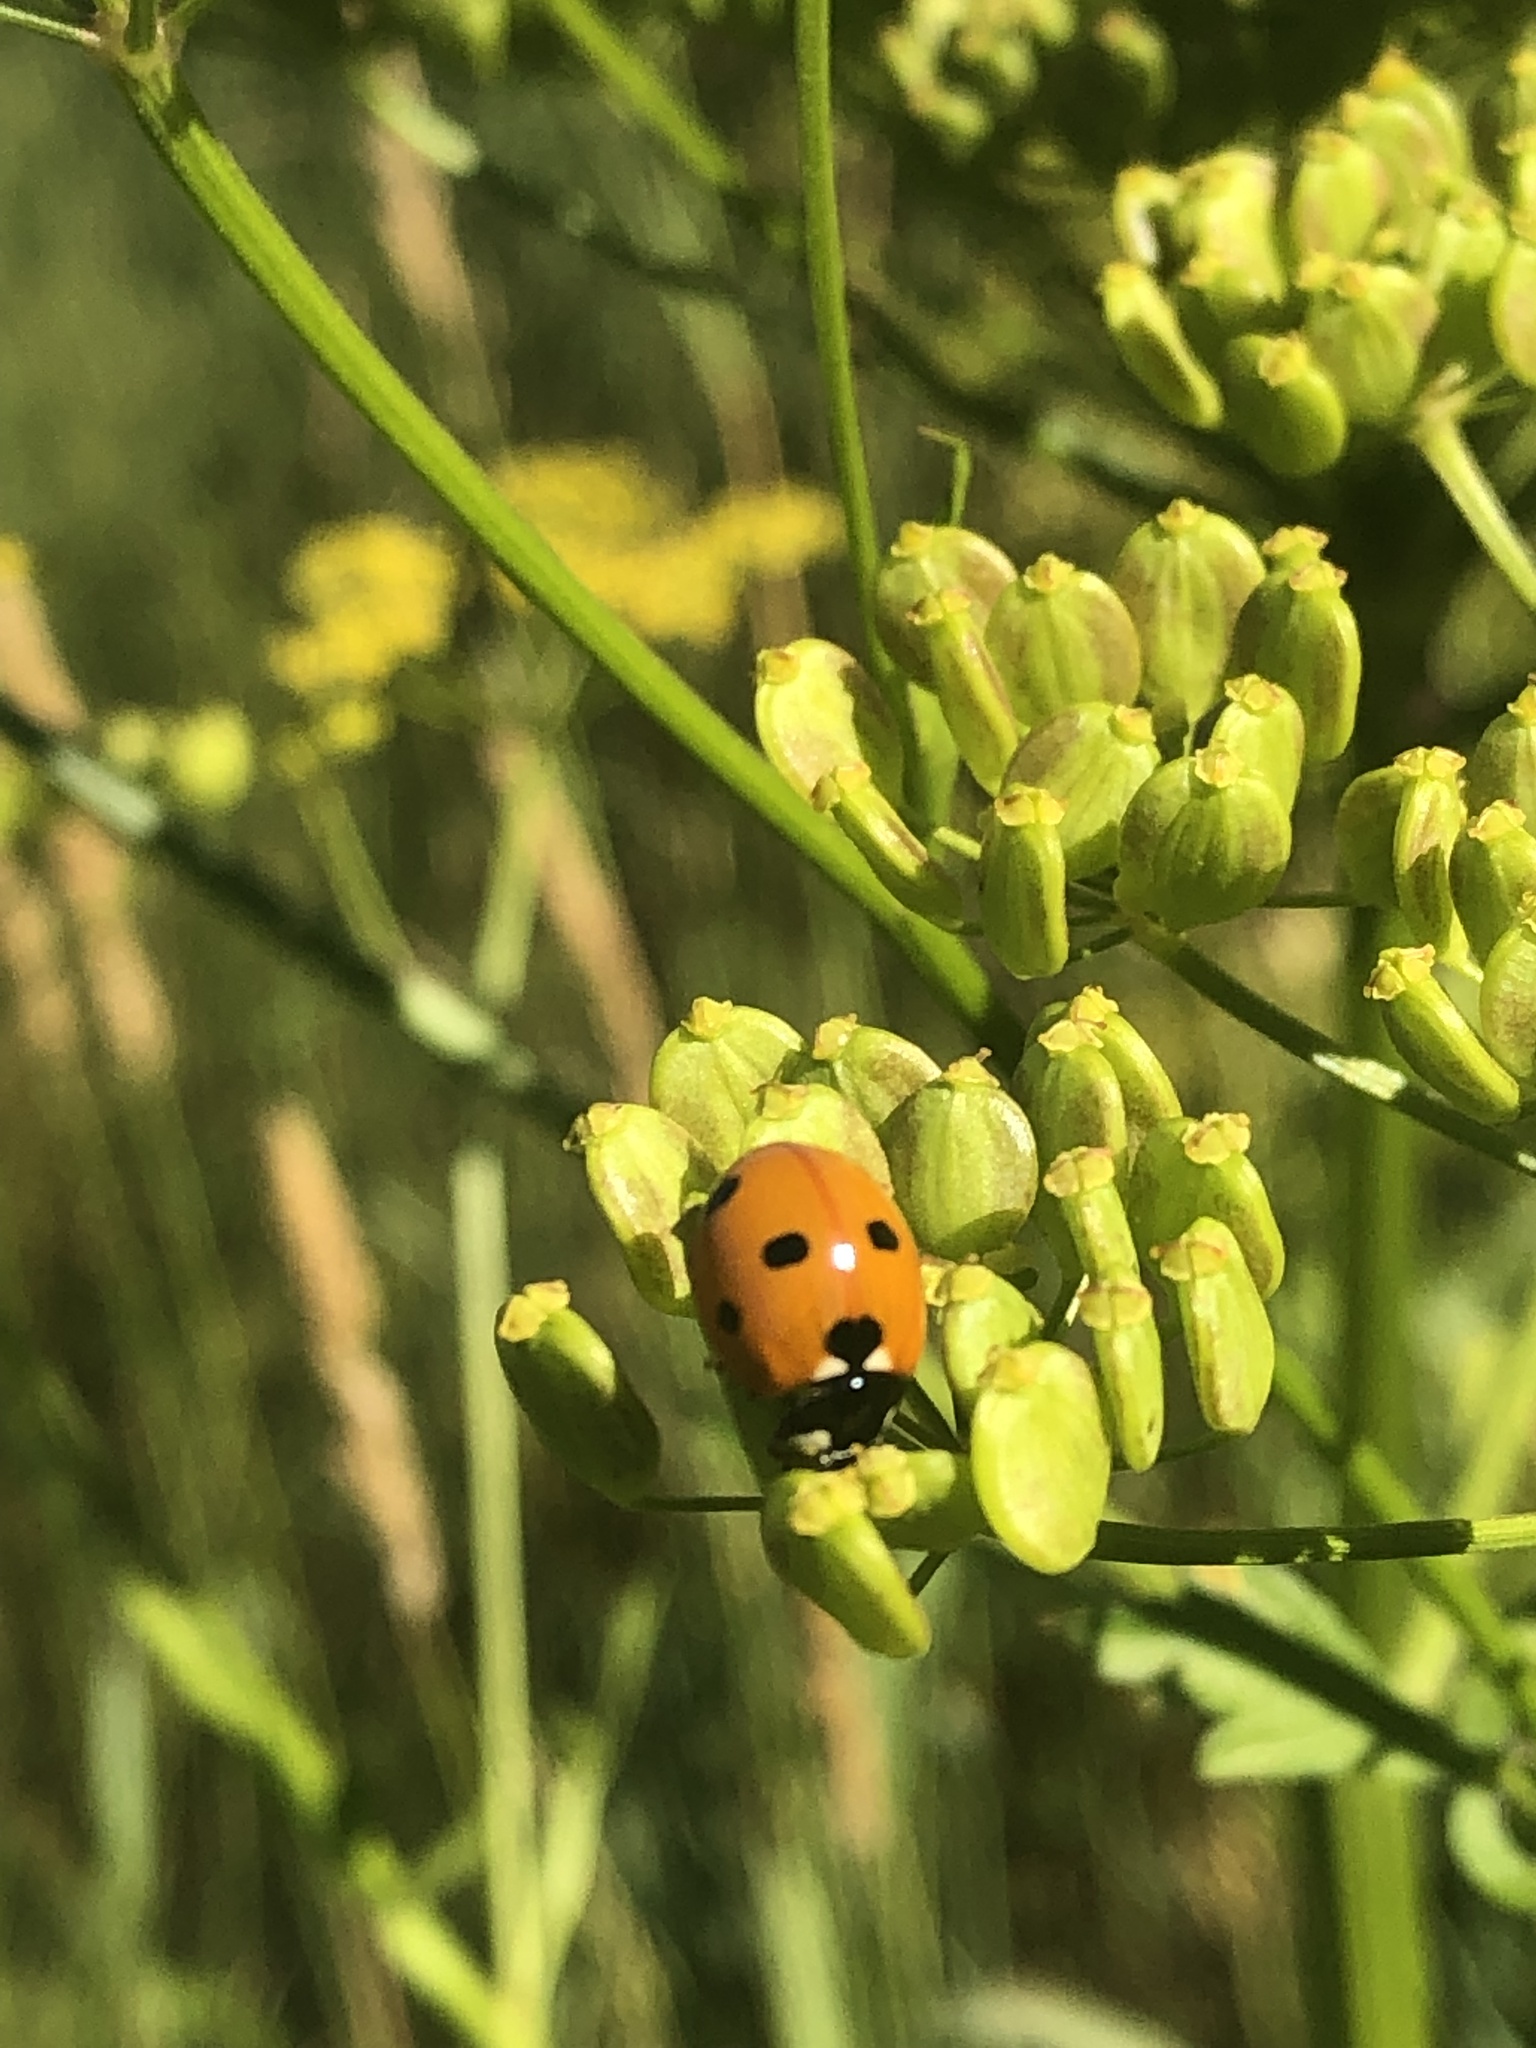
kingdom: Animalia
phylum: Arthropoda
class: Insecta
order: Coleoptera
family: Coccinellidae
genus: Coccinella
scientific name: Coccinella septempunctata
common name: Sevenspotted lady beetle
